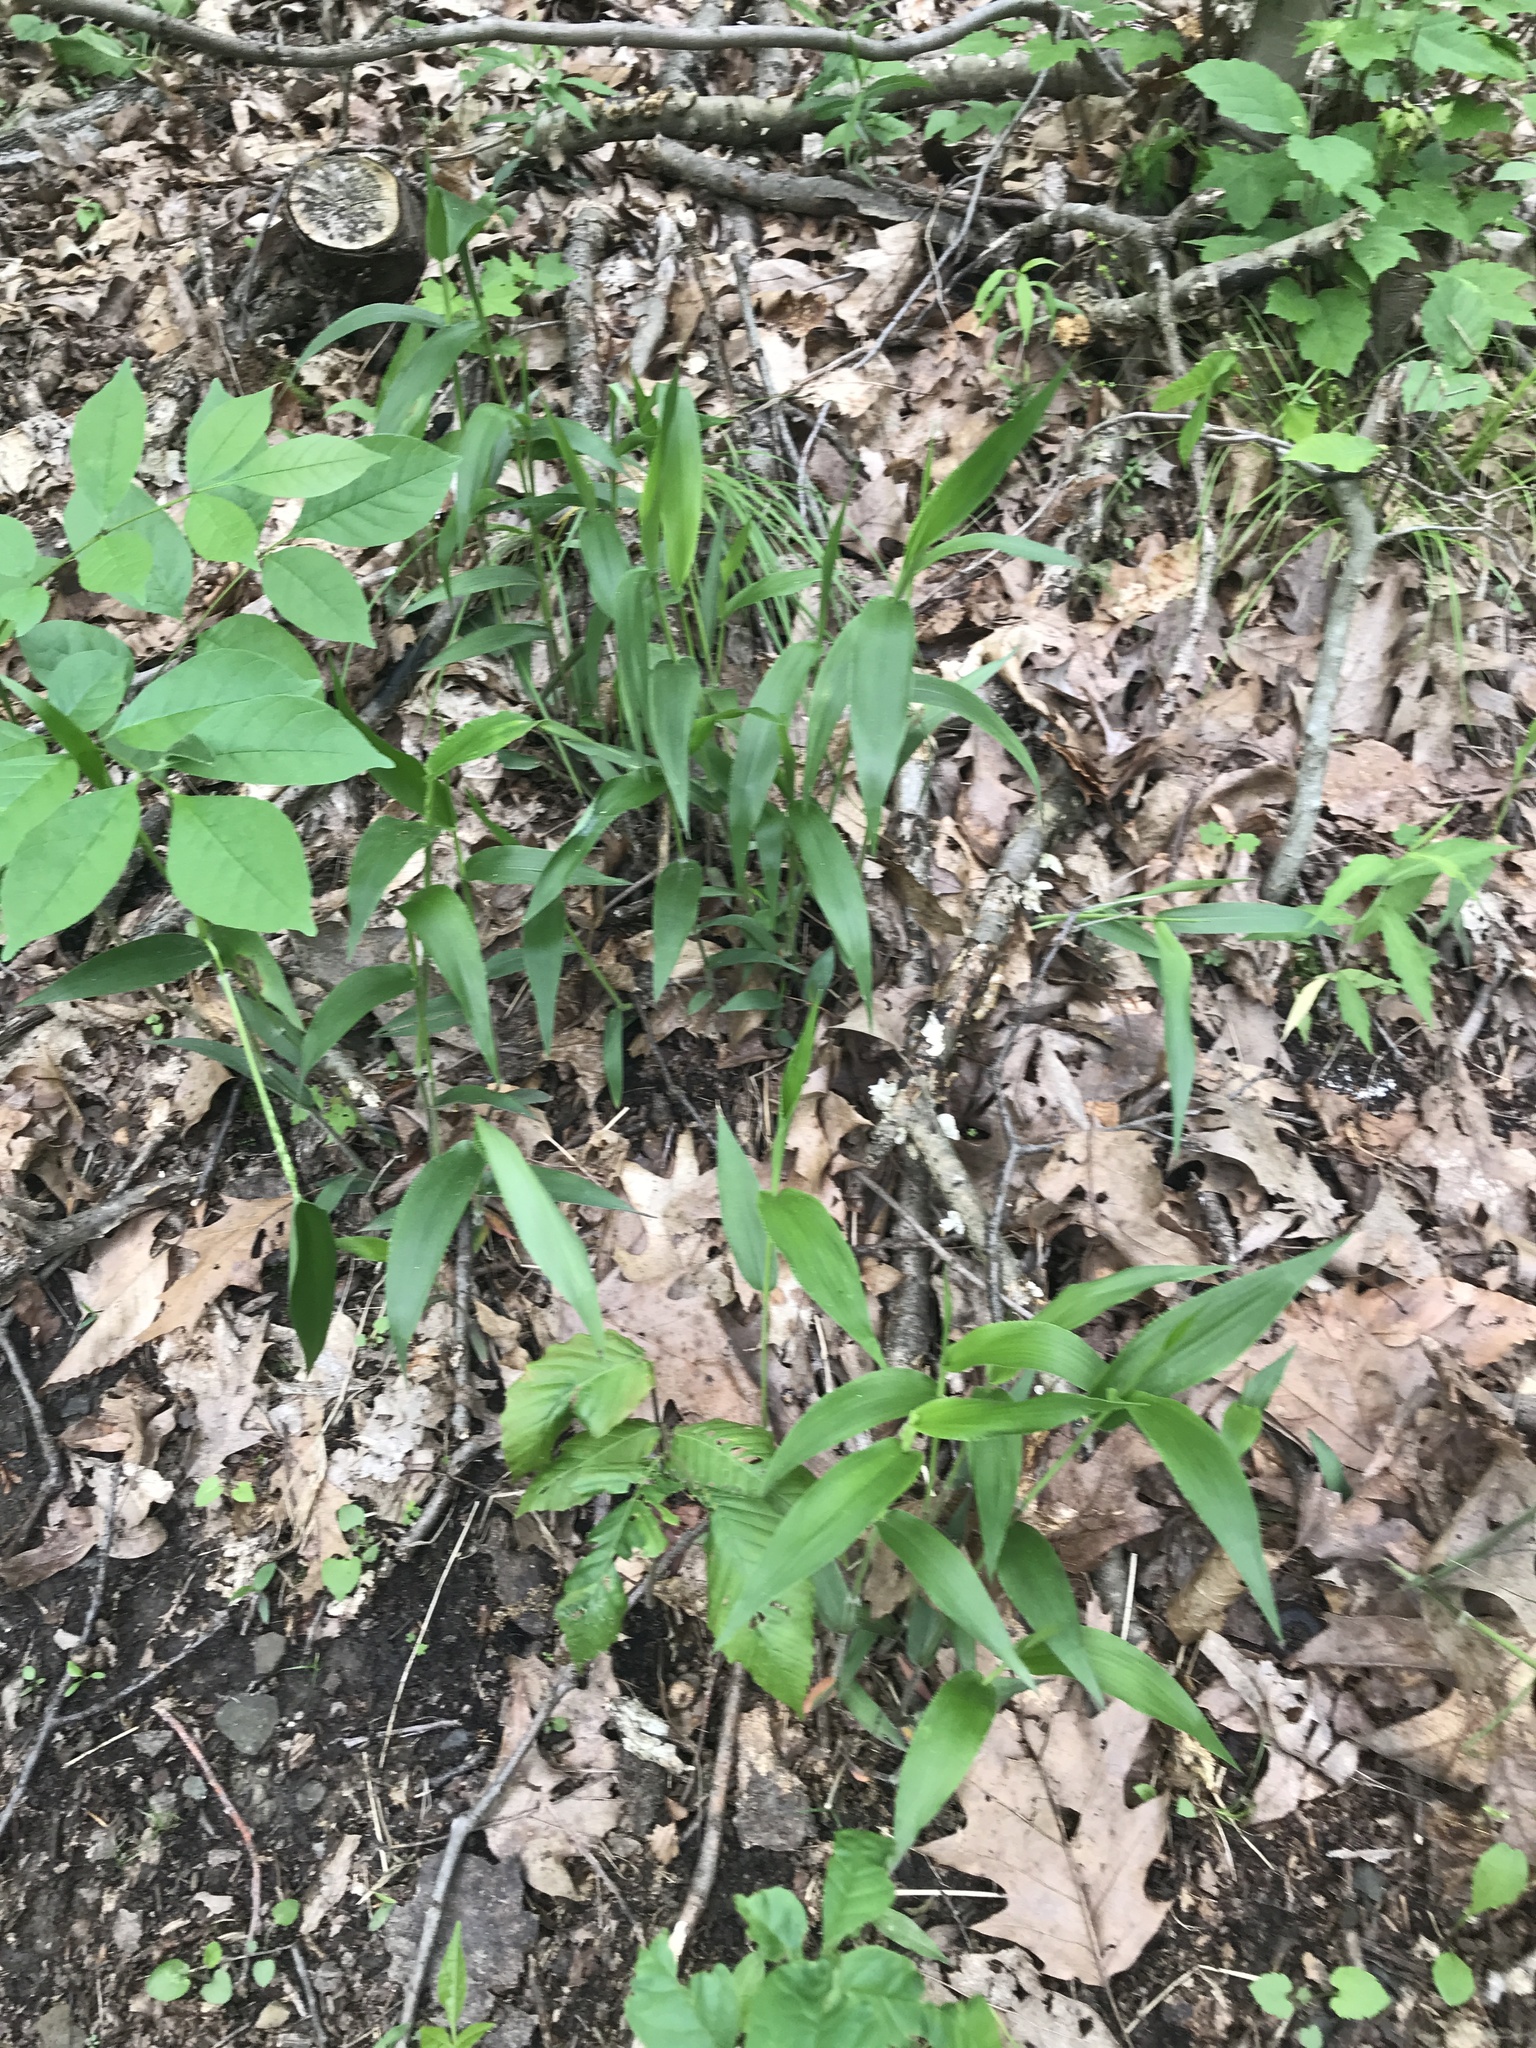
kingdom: Plantae
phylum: Tracheophyta
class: Liliopsida
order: Poales
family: Poaceae
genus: Dichanthelium
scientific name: Dichanthelium boscii
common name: Bosc's panic grass
